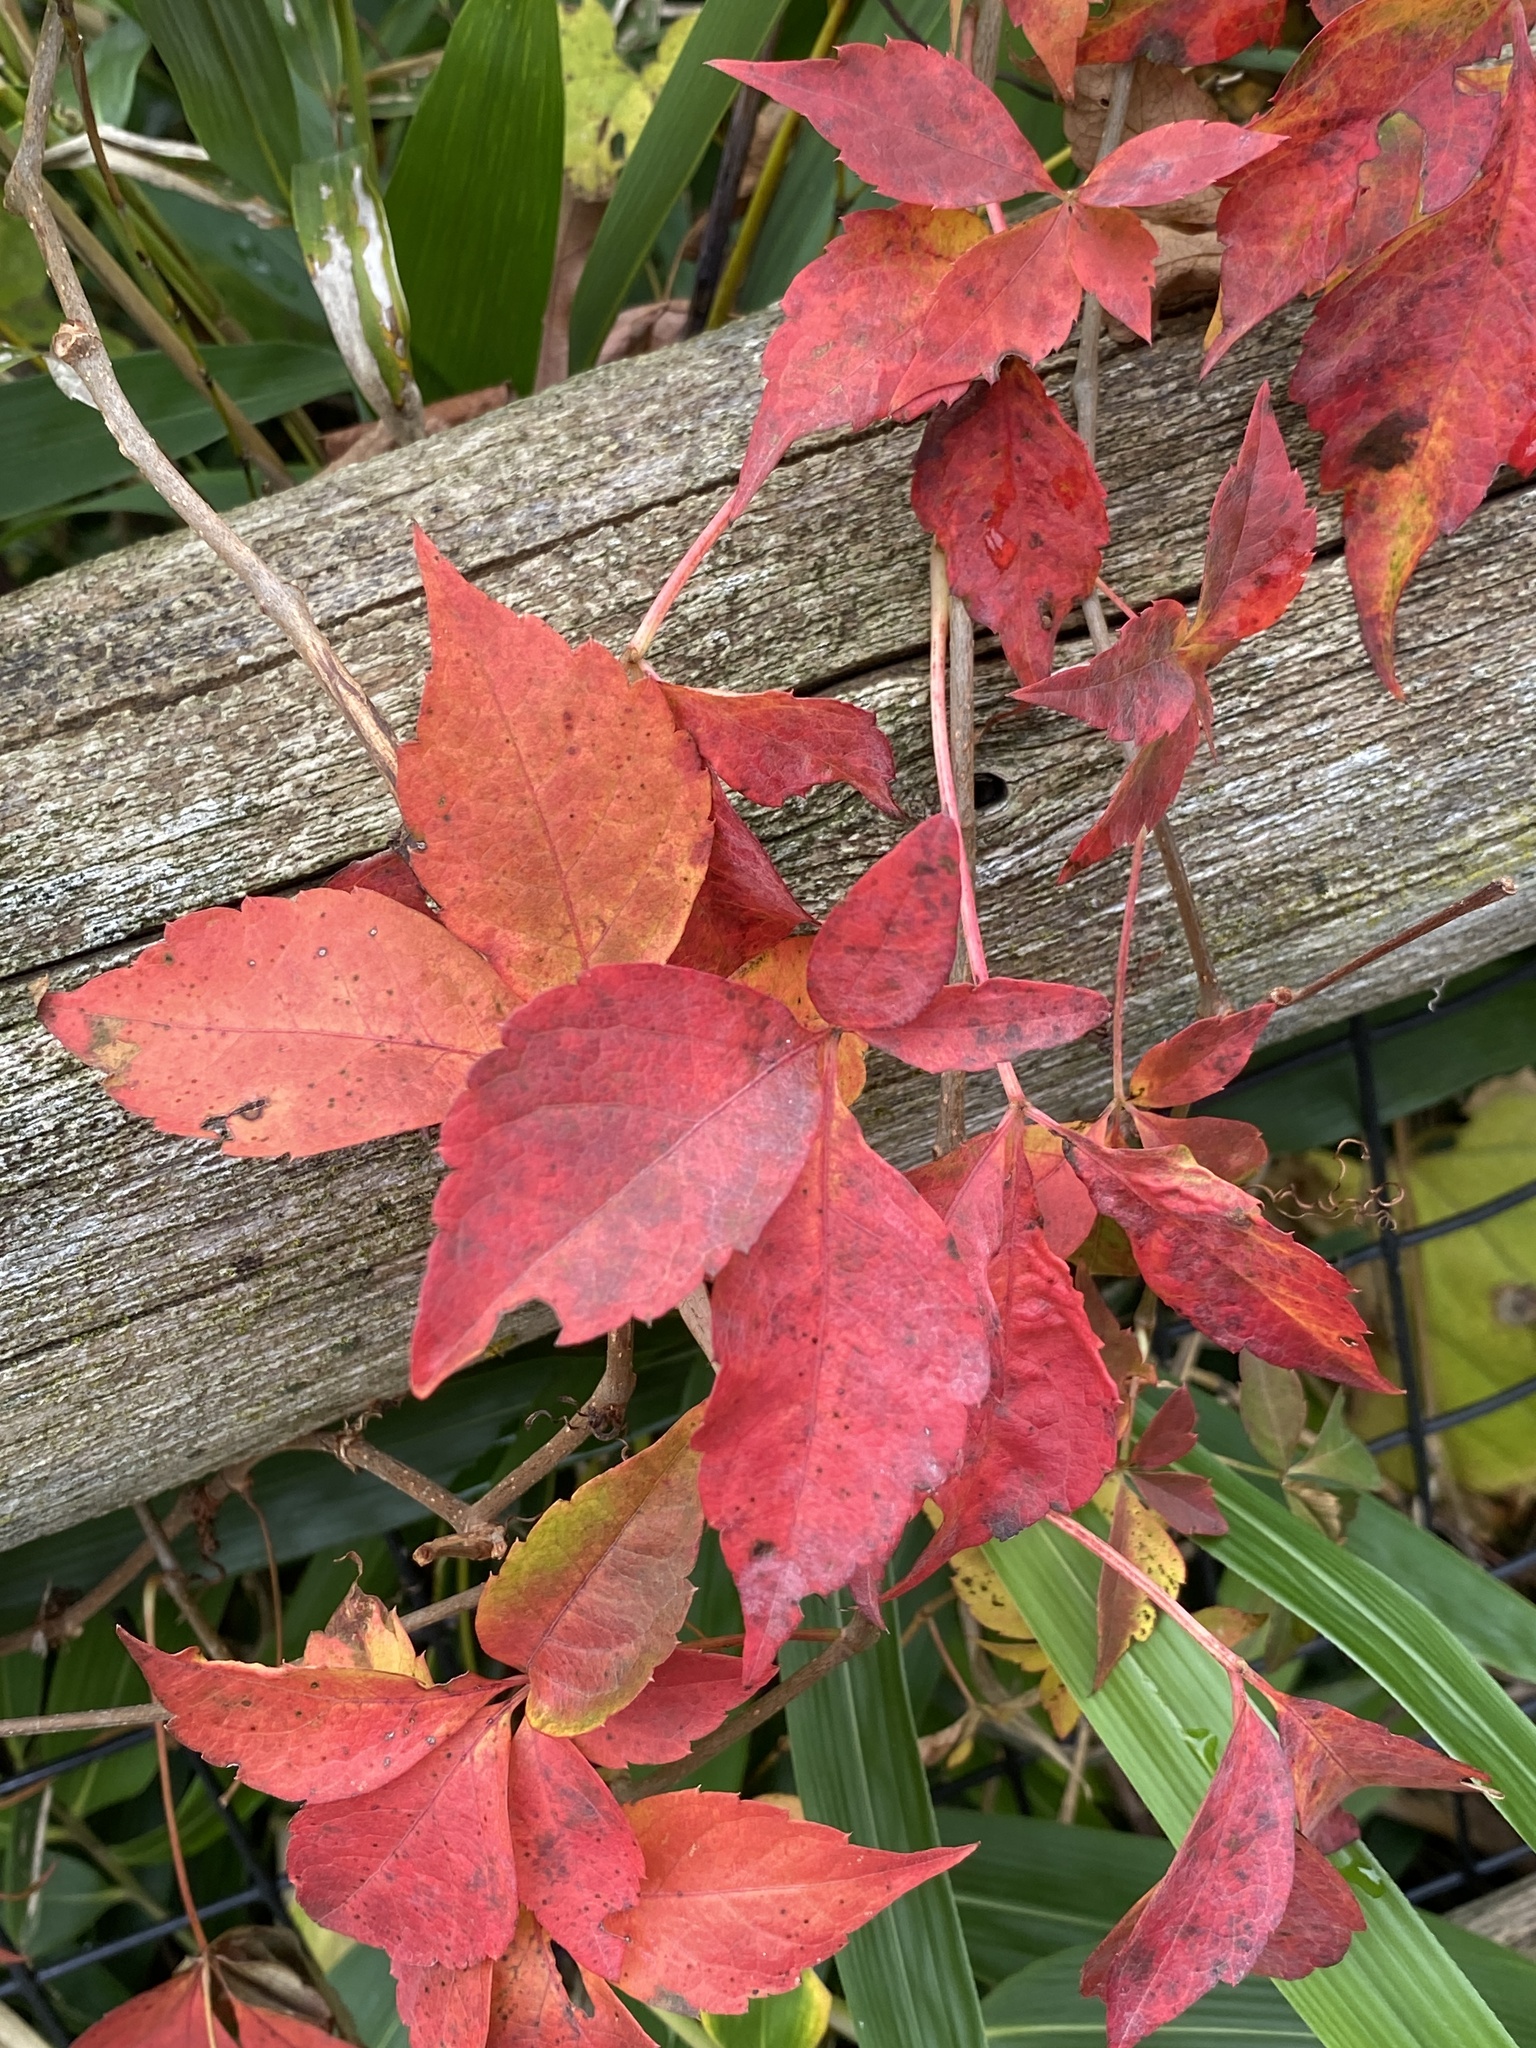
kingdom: Plantae
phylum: Tracheophyta
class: Magnoliopsida
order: Vitales
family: Vitaceae
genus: Parthenocissus
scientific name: Parthenocissus quinquefolia
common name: Virginia-creeper
